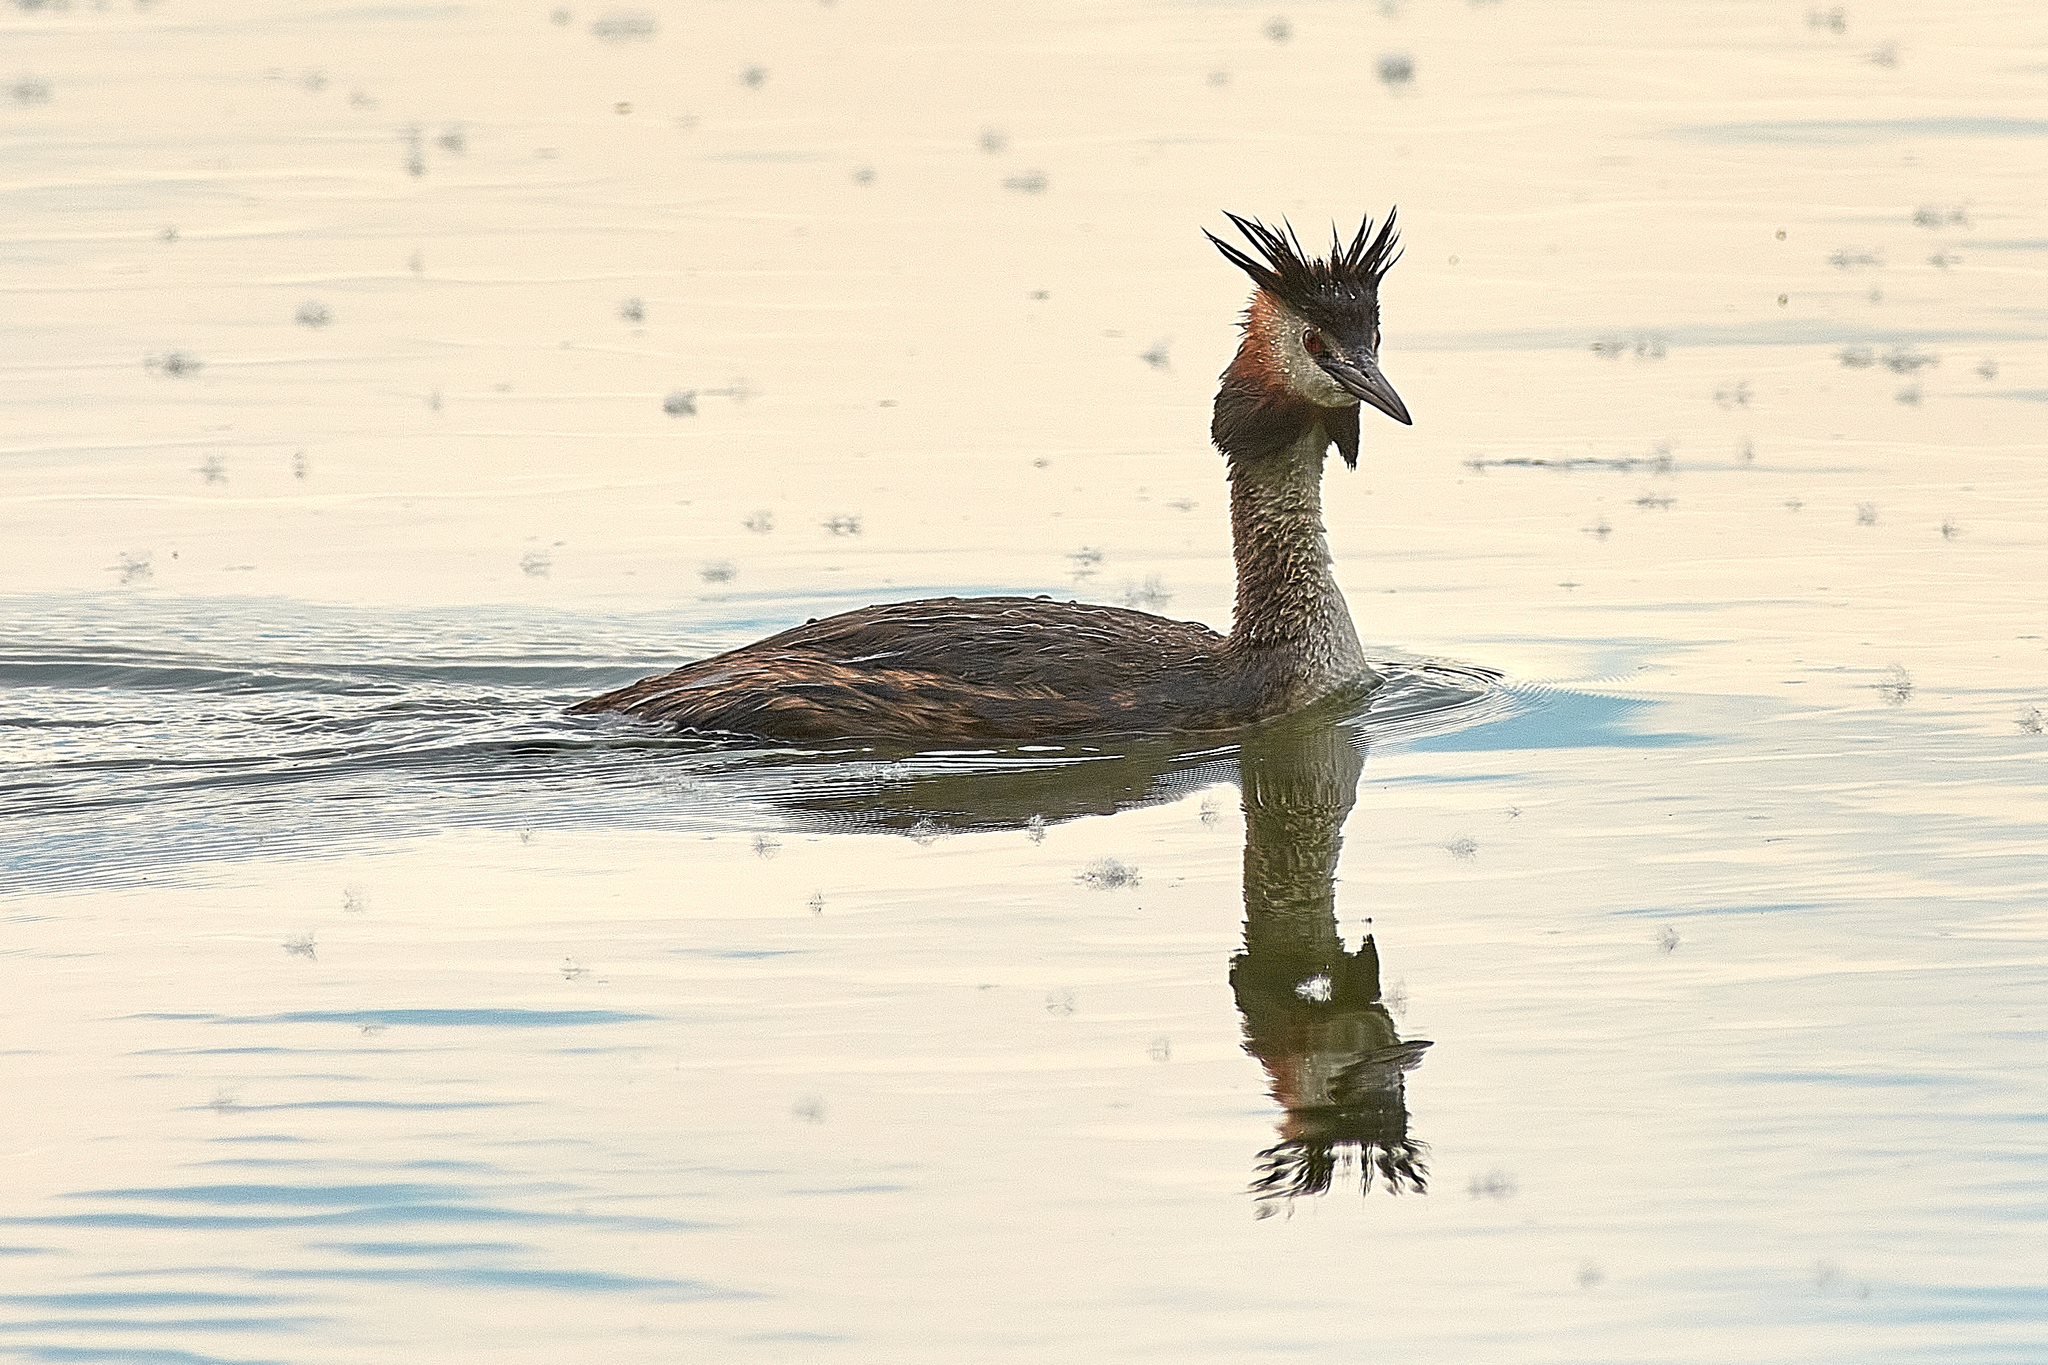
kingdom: Animalia
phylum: Chordata
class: Aves
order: Podicipediformes
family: Podicipedidae
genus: Podiceps
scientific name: Podiceps cristatus
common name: Great crested grebe
